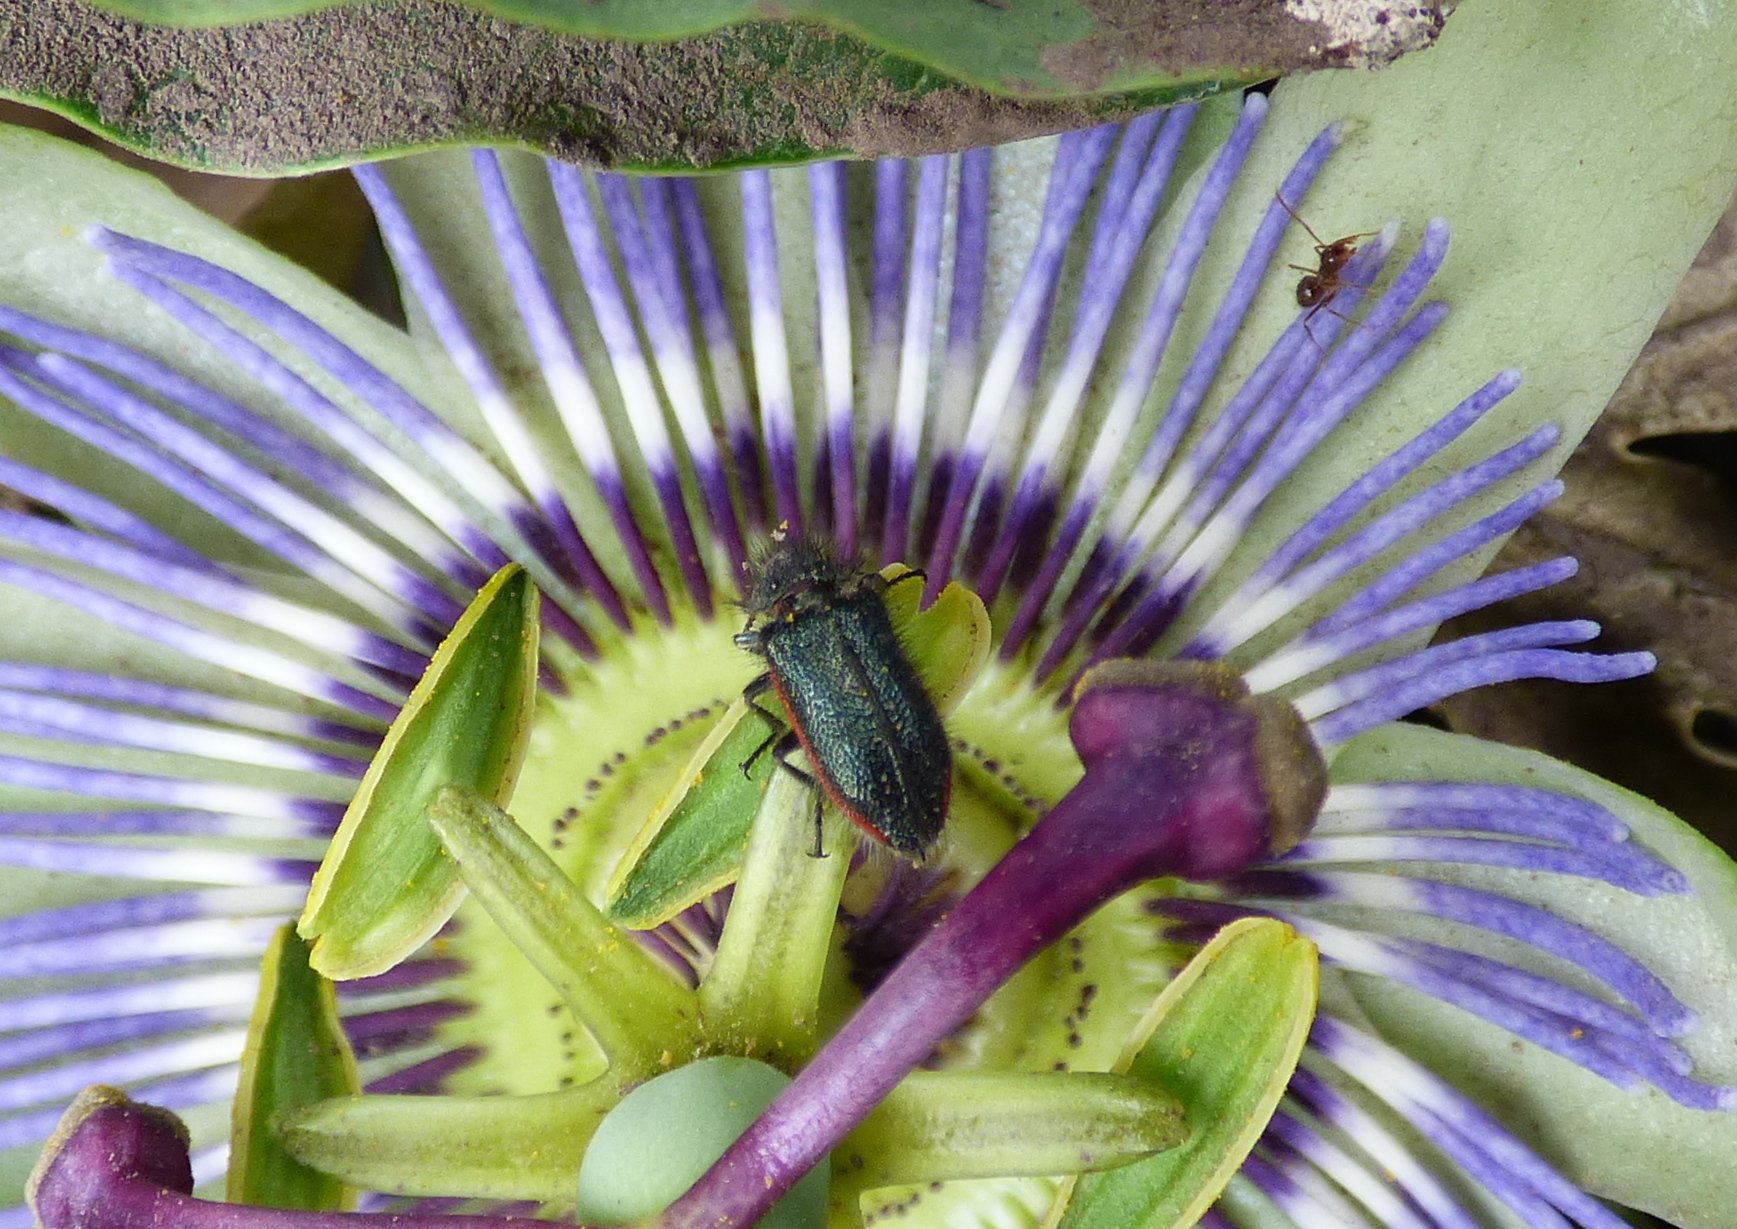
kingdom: Animalia
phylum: Arthropoda
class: Insecta
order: Coleoptera
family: Melyridae
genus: Astylus
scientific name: Astylus
